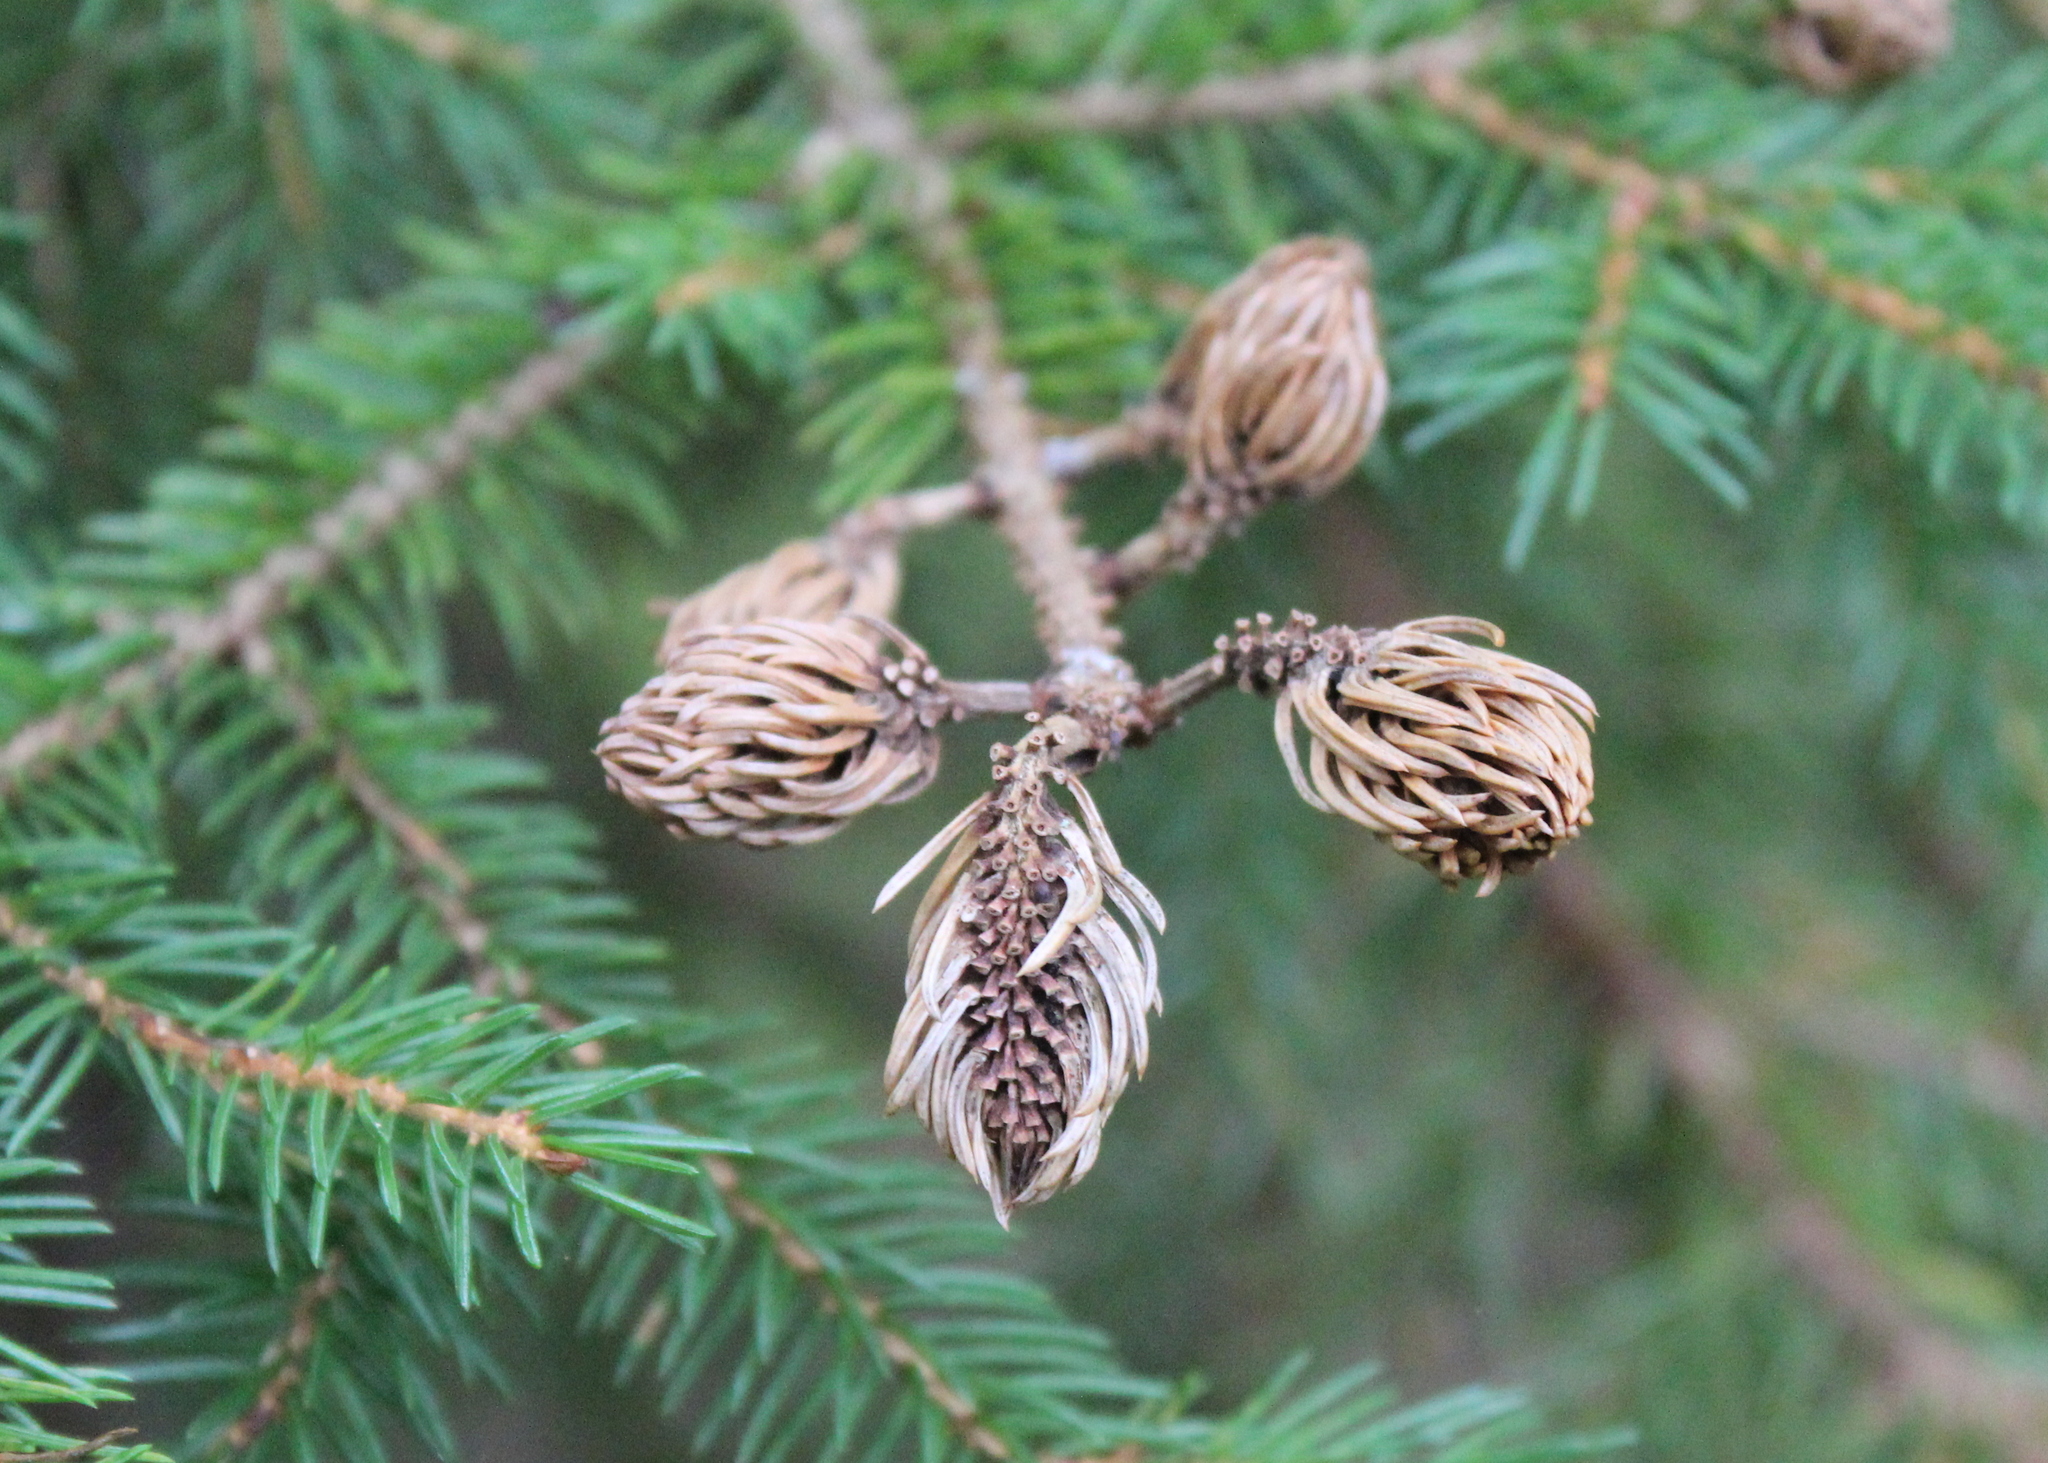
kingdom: Animalia
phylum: Arthropoda
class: Insecta
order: Hemiptera
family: Adelgidae
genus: Adelges
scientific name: Adelges abietis
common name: Eastern spruce gall adelgid
